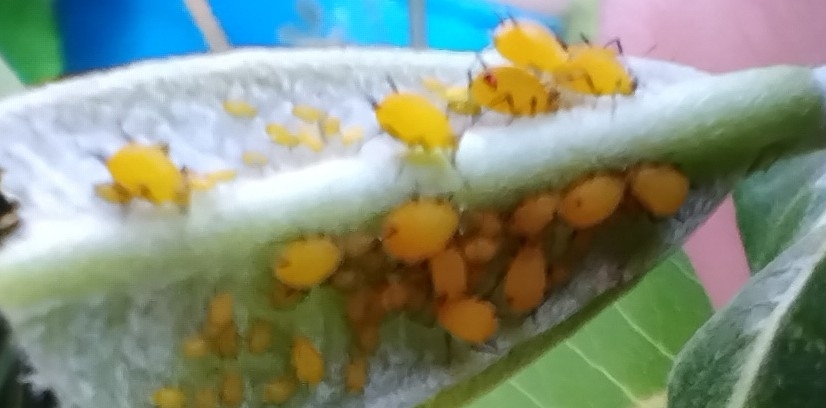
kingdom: Animalia
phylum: Arthropoda
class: Insecta
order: Hemiptera
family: Aphididae
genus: Aphis
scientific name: Aphis nerii
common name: Oleander aphid
